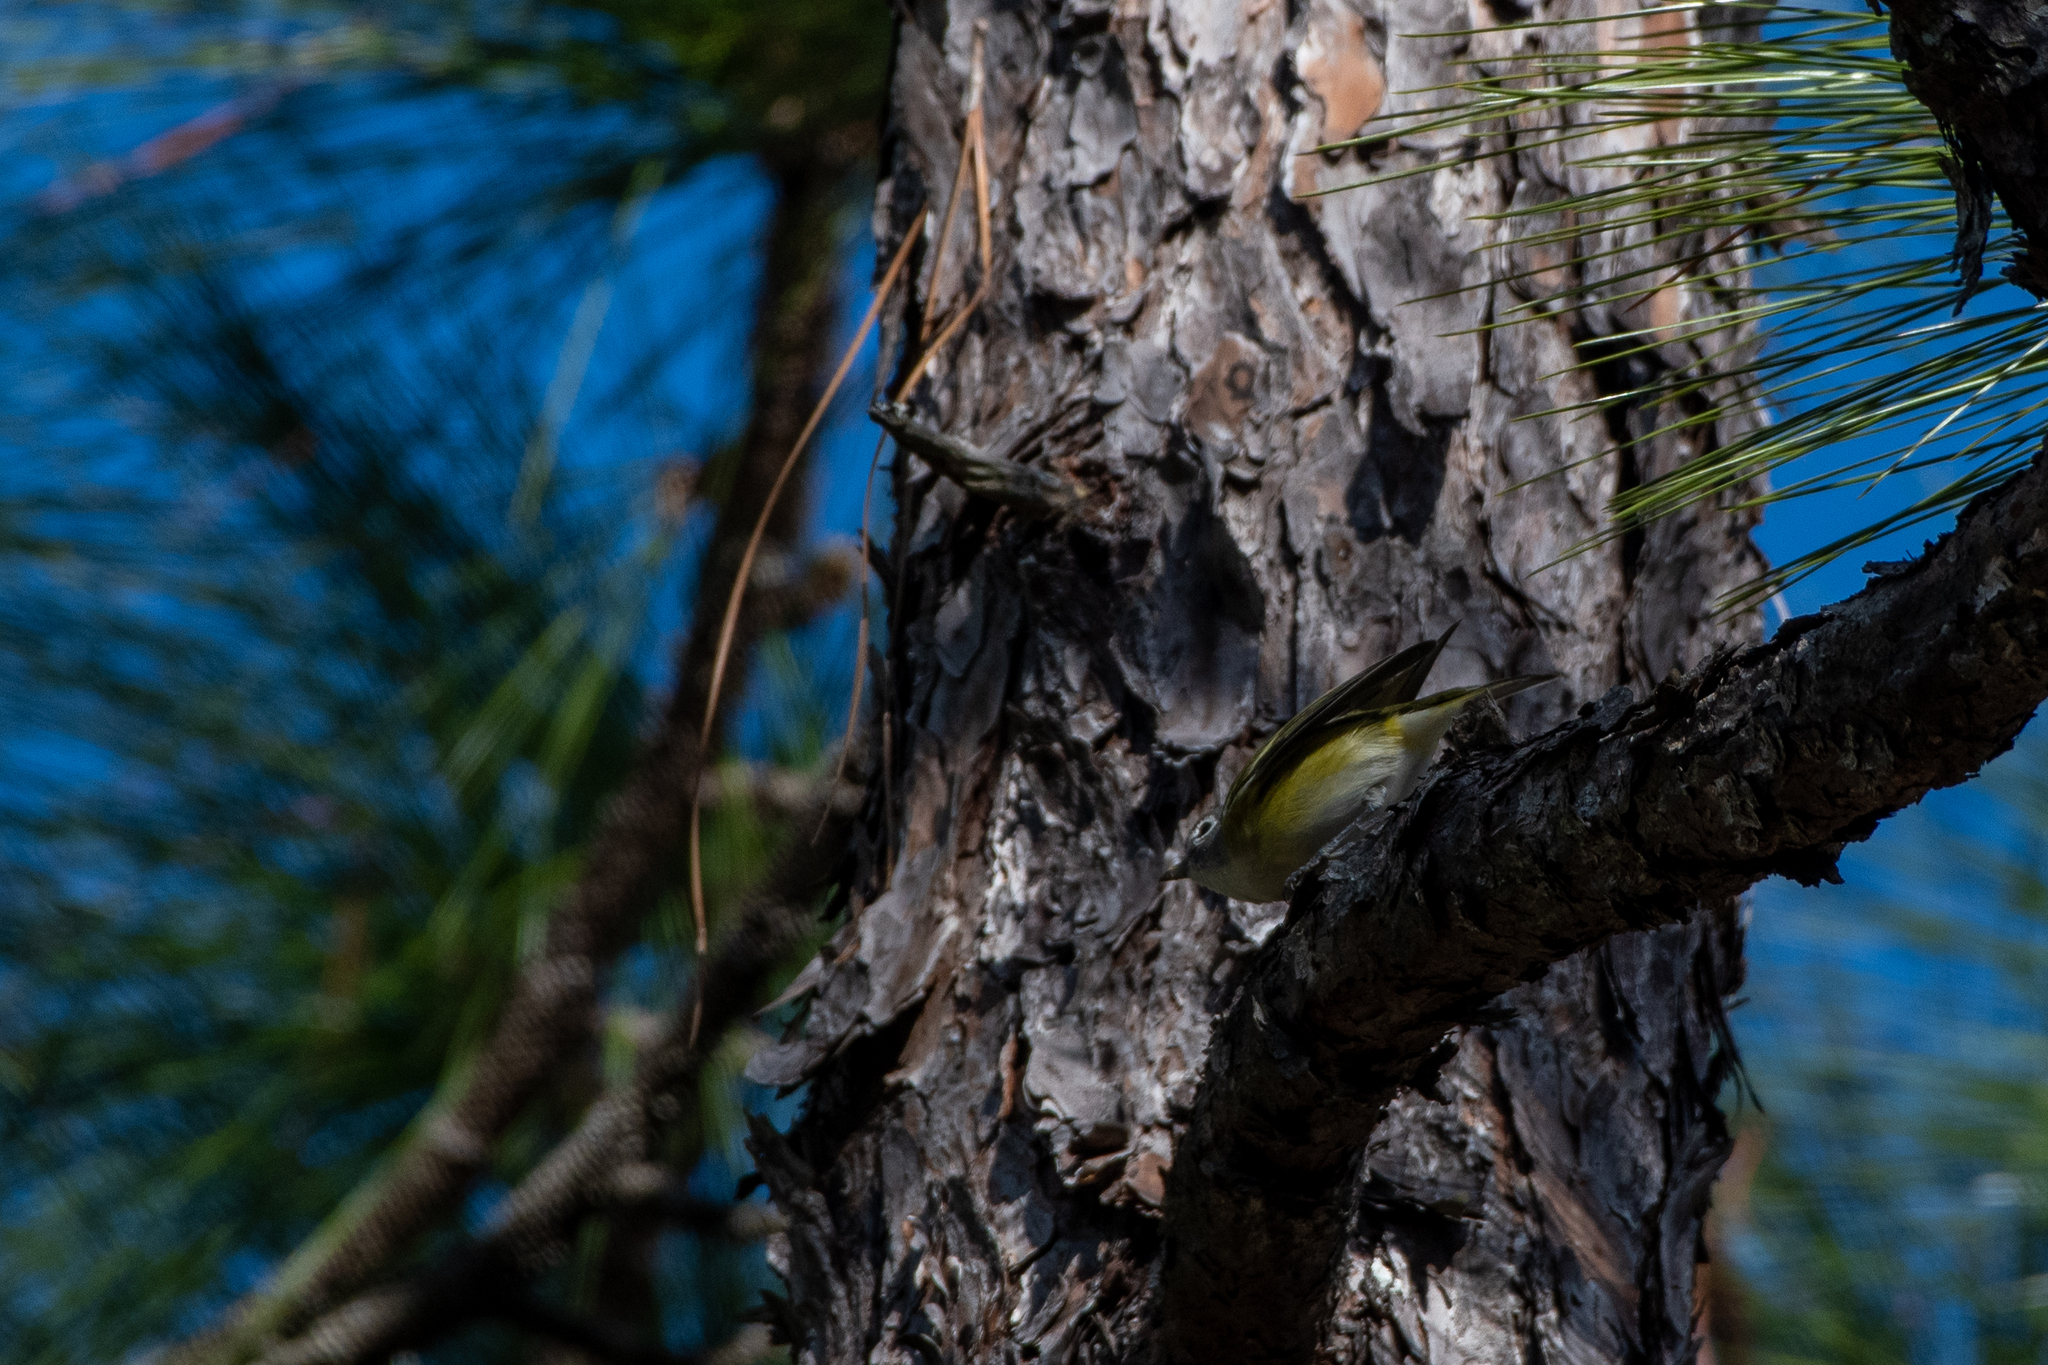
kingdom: Animalia
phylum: Chordata
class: Aves
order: Passeriformes
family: Vireonidae
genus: Vireo
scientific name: Vireo solitarius
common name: Blue-headed vireo
